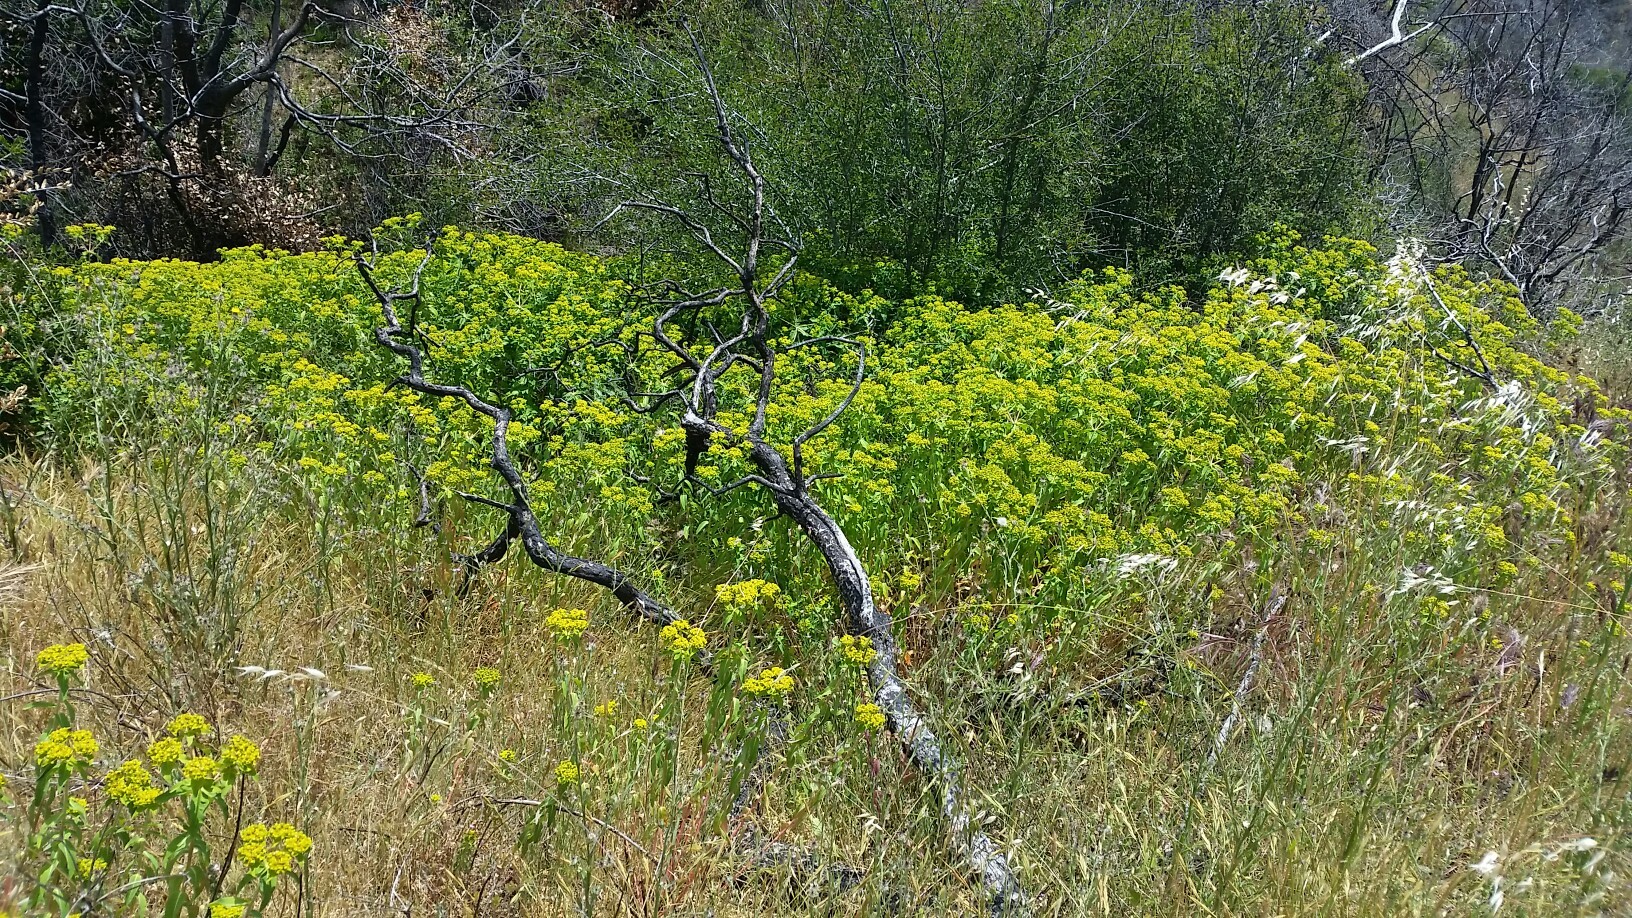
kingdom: Plantae
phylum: Tracheophyta
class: Magnoliopsida
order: Malpighiales
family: Euphorbiaceae
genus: Euphorbia
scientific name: Euphorbia oblongata
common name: Balkan spurge
